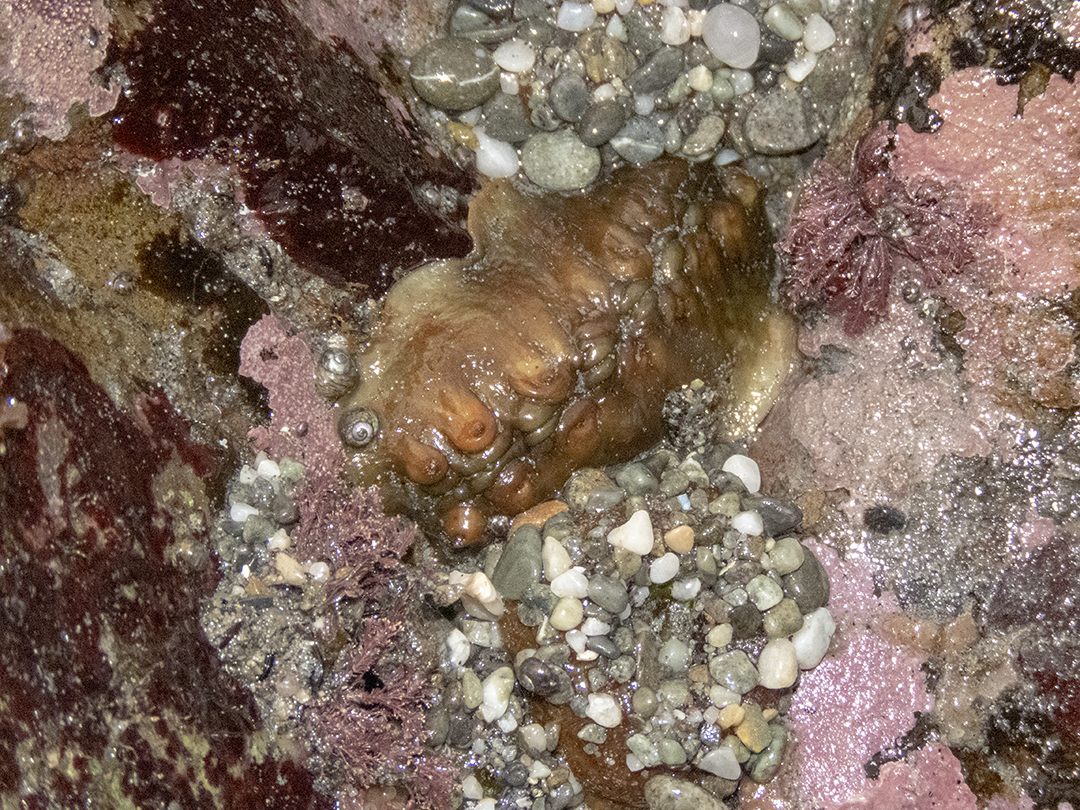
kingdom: Animalia
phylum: Mollusca
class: Polyplacophora
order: Chitonida
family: Acanthochitonidae
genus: Cryptoconchus
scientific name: Cryptoconchus porosus
